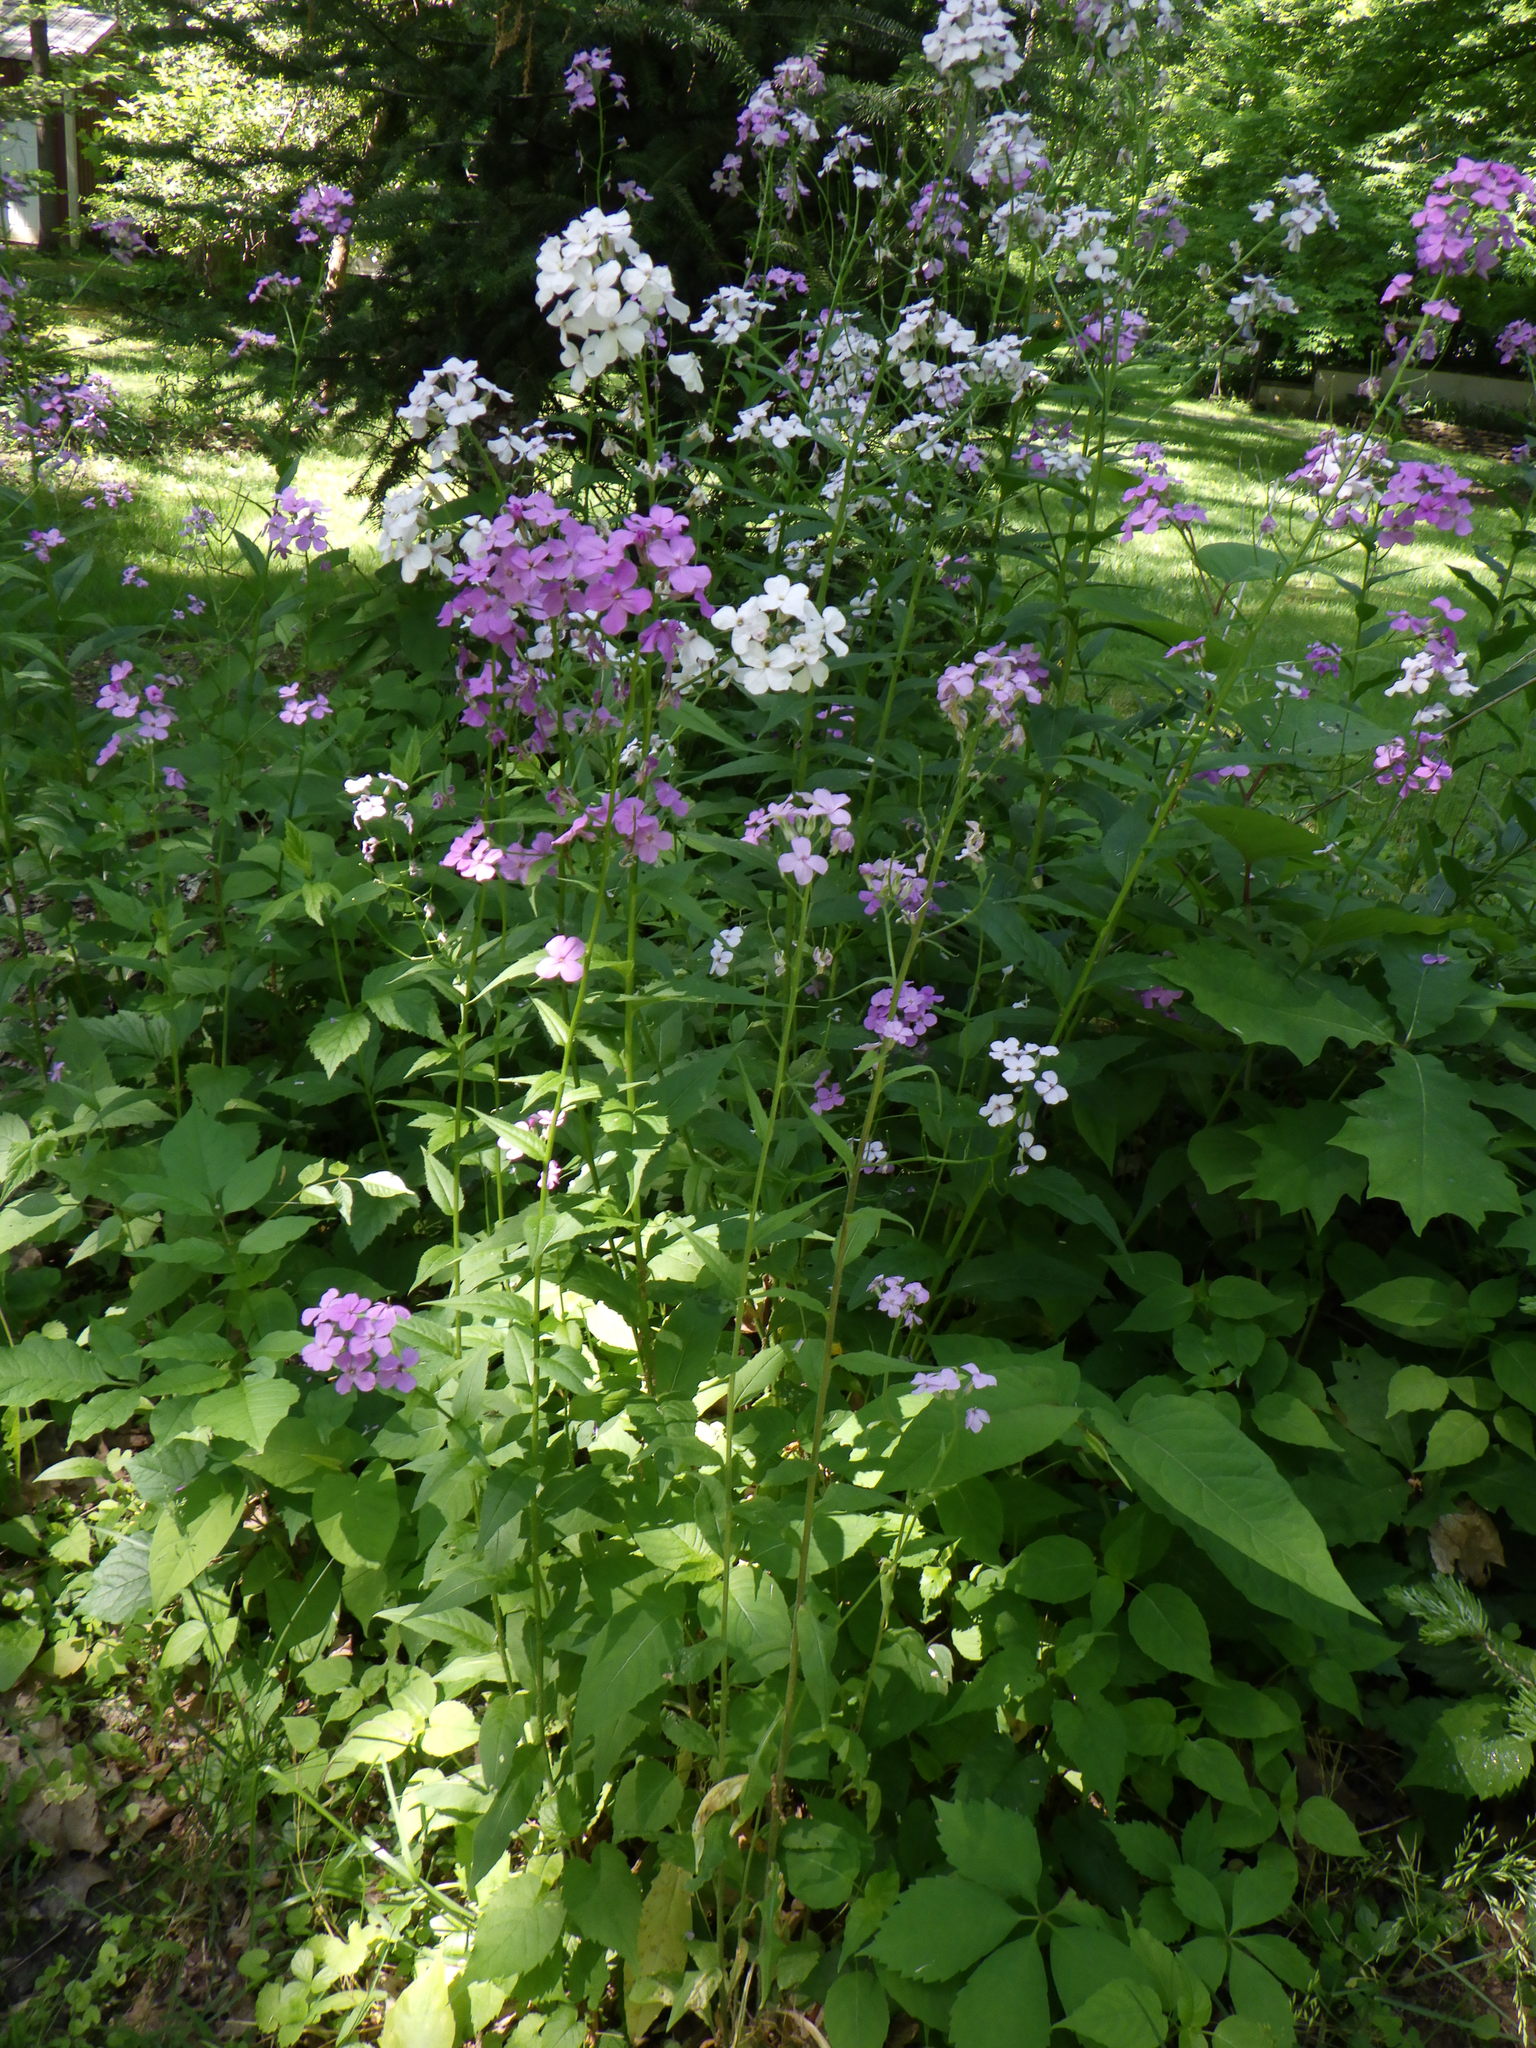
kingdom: Plantae
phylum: Tracheophyta
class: Magnoliopsida
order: Brassicales
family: Brassicaceae
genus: Hesperis
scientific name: Hesperis matronalis
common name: Dame's-violet
